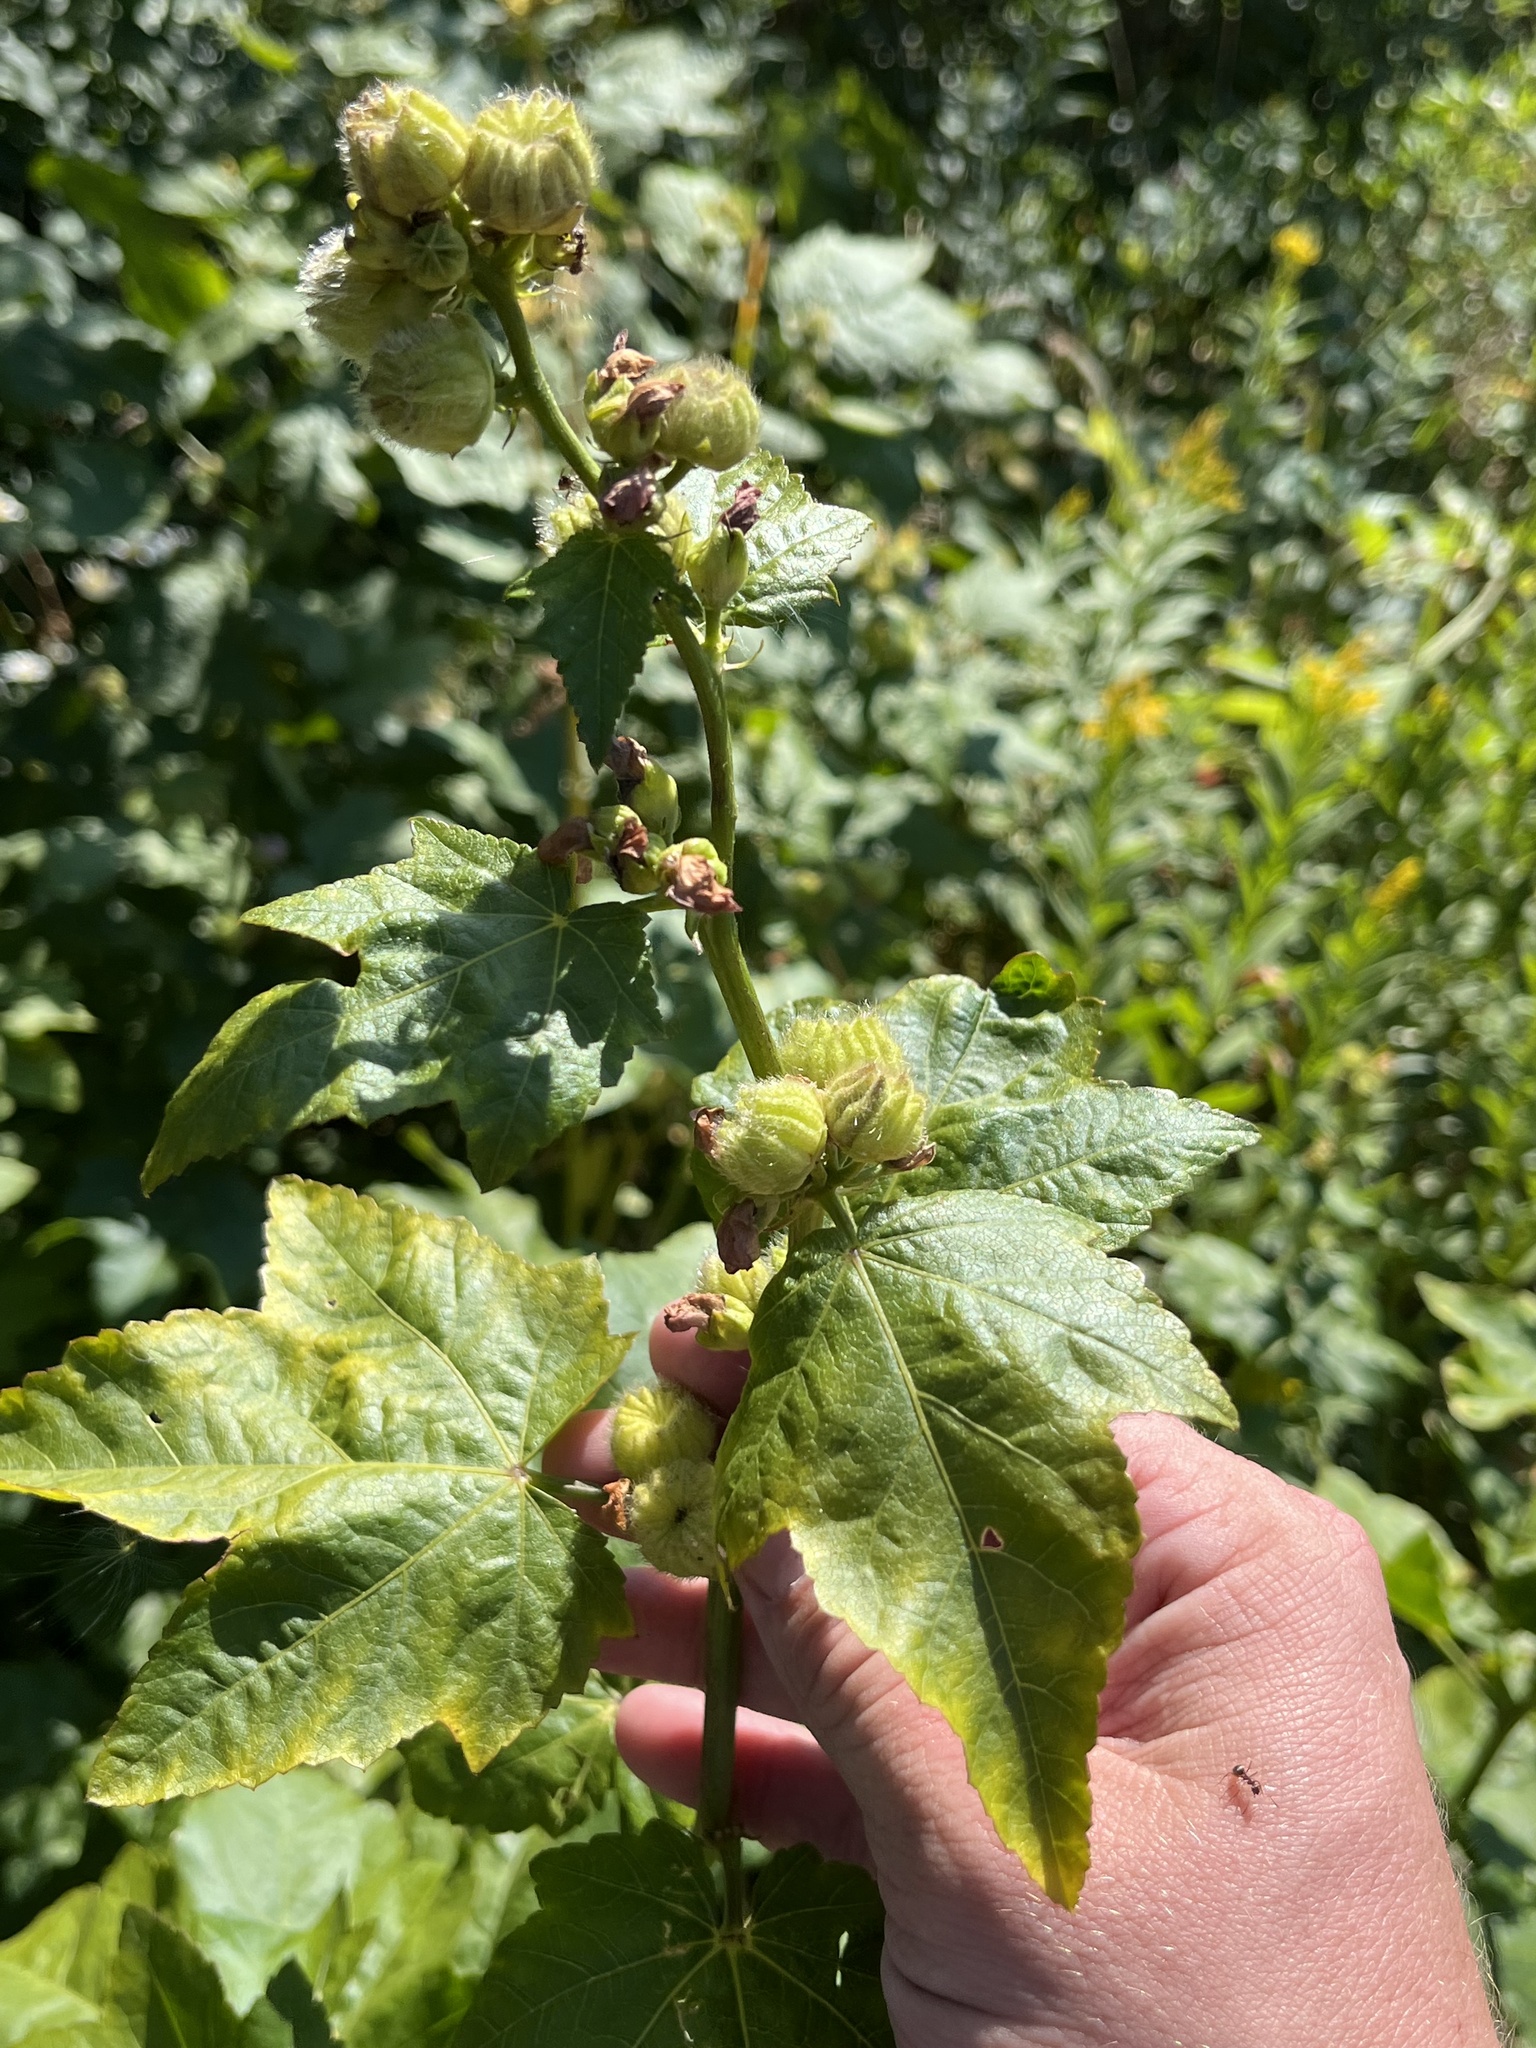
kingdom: Plantae
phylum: Tracheophyta
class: Magnoliopsida
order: Malvales
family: Malvaceae
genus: Iliamna
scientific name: Iliamna rivularis
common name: Wild hollyhock
